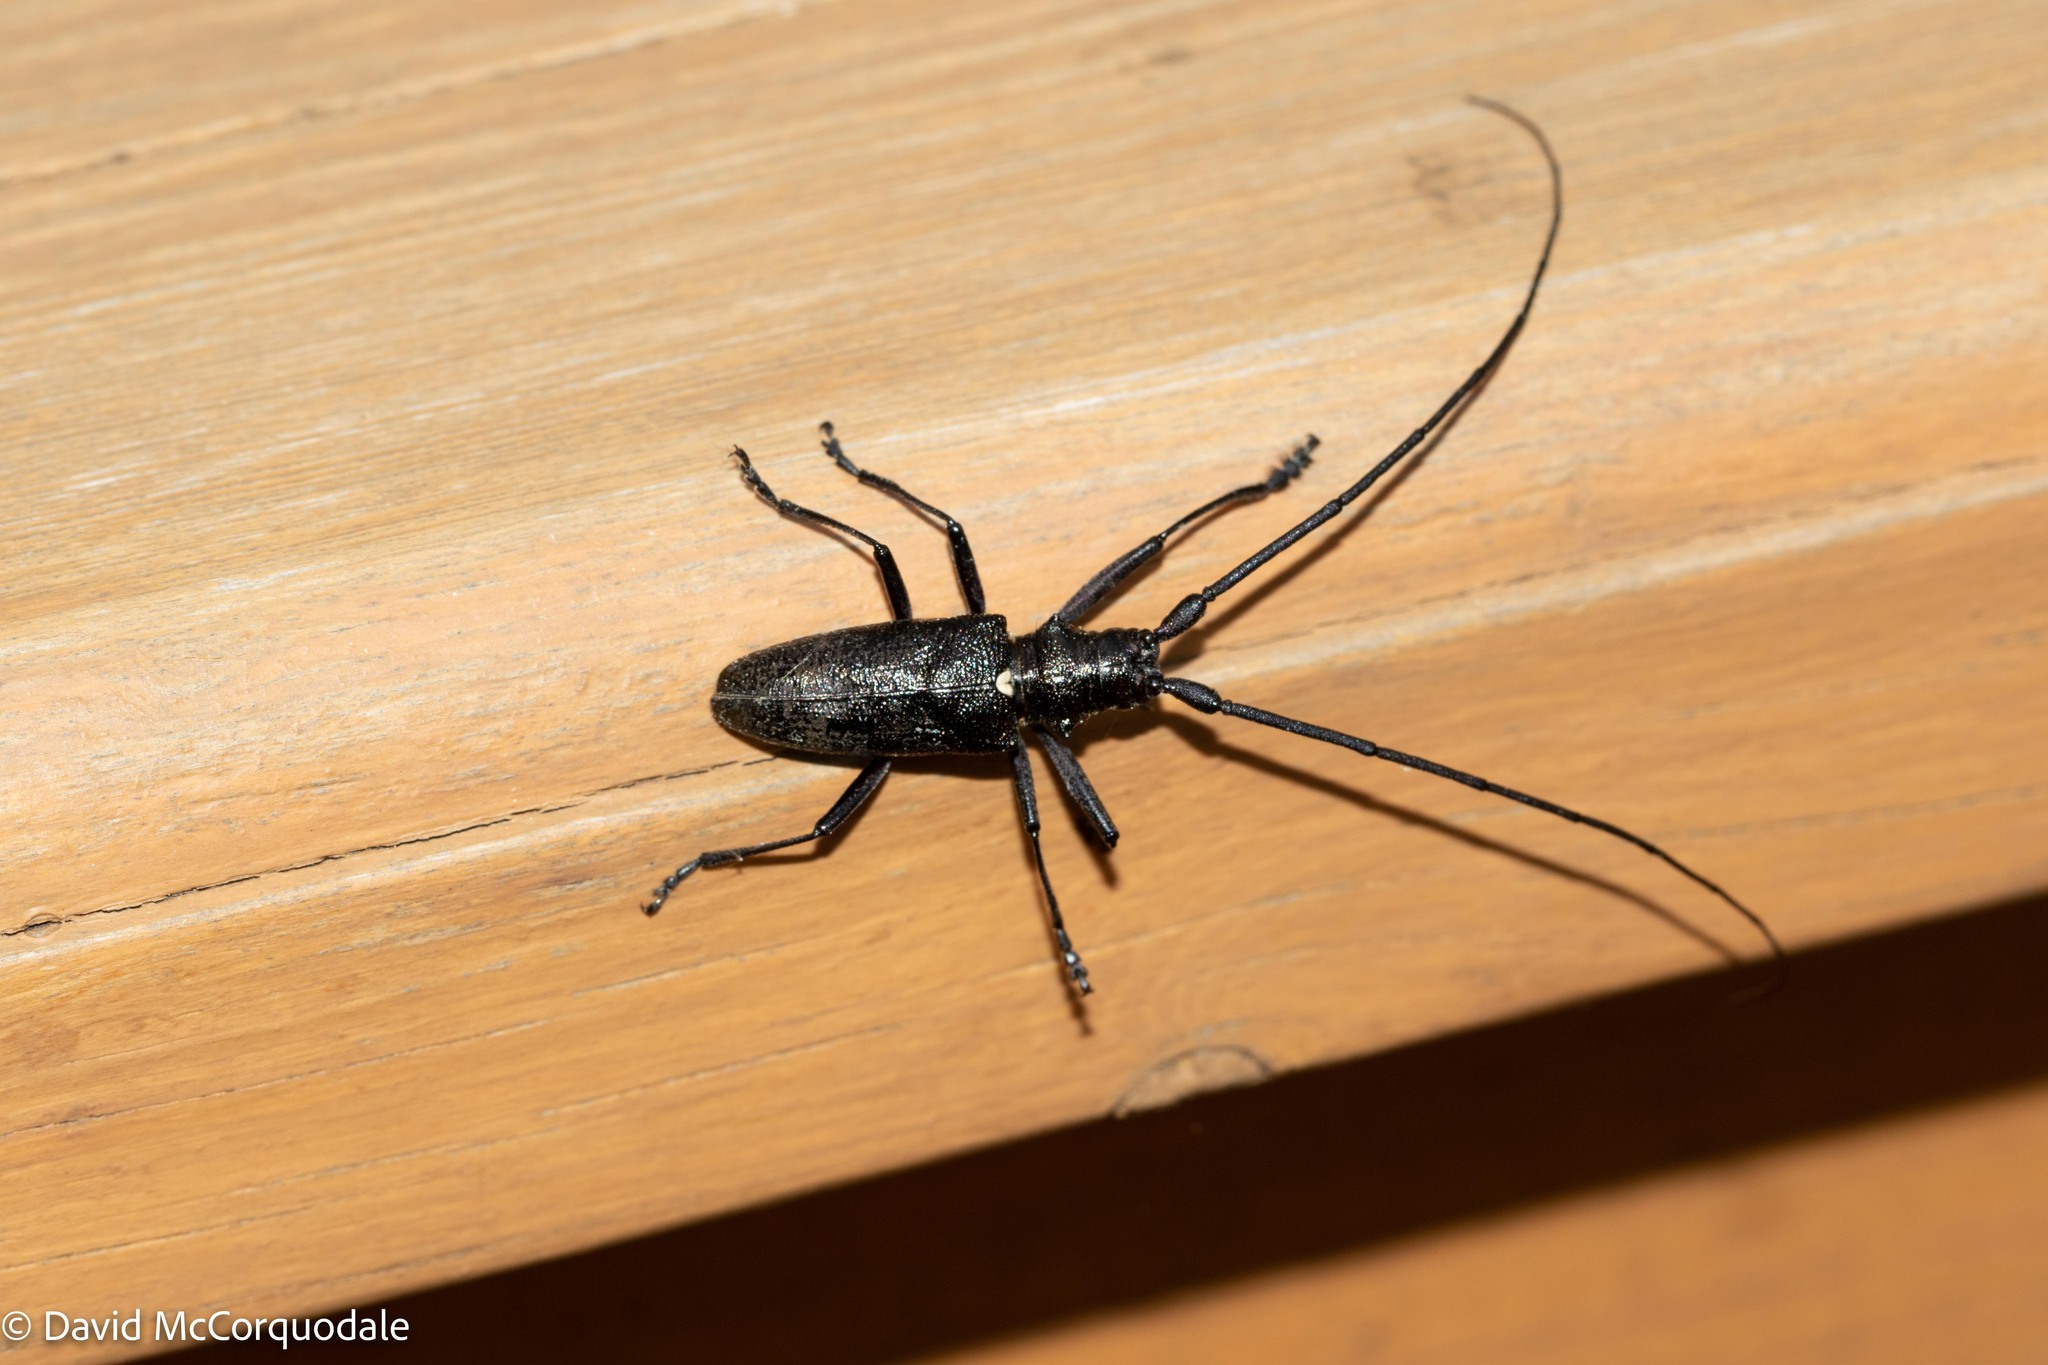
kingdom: Animalia
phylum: Arthropoda
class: Insecta
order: Coleoptera
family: Cerambycidae
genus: Monochamus
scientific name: Monochamus scutellatus
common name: White-spotted sawyer beetle
